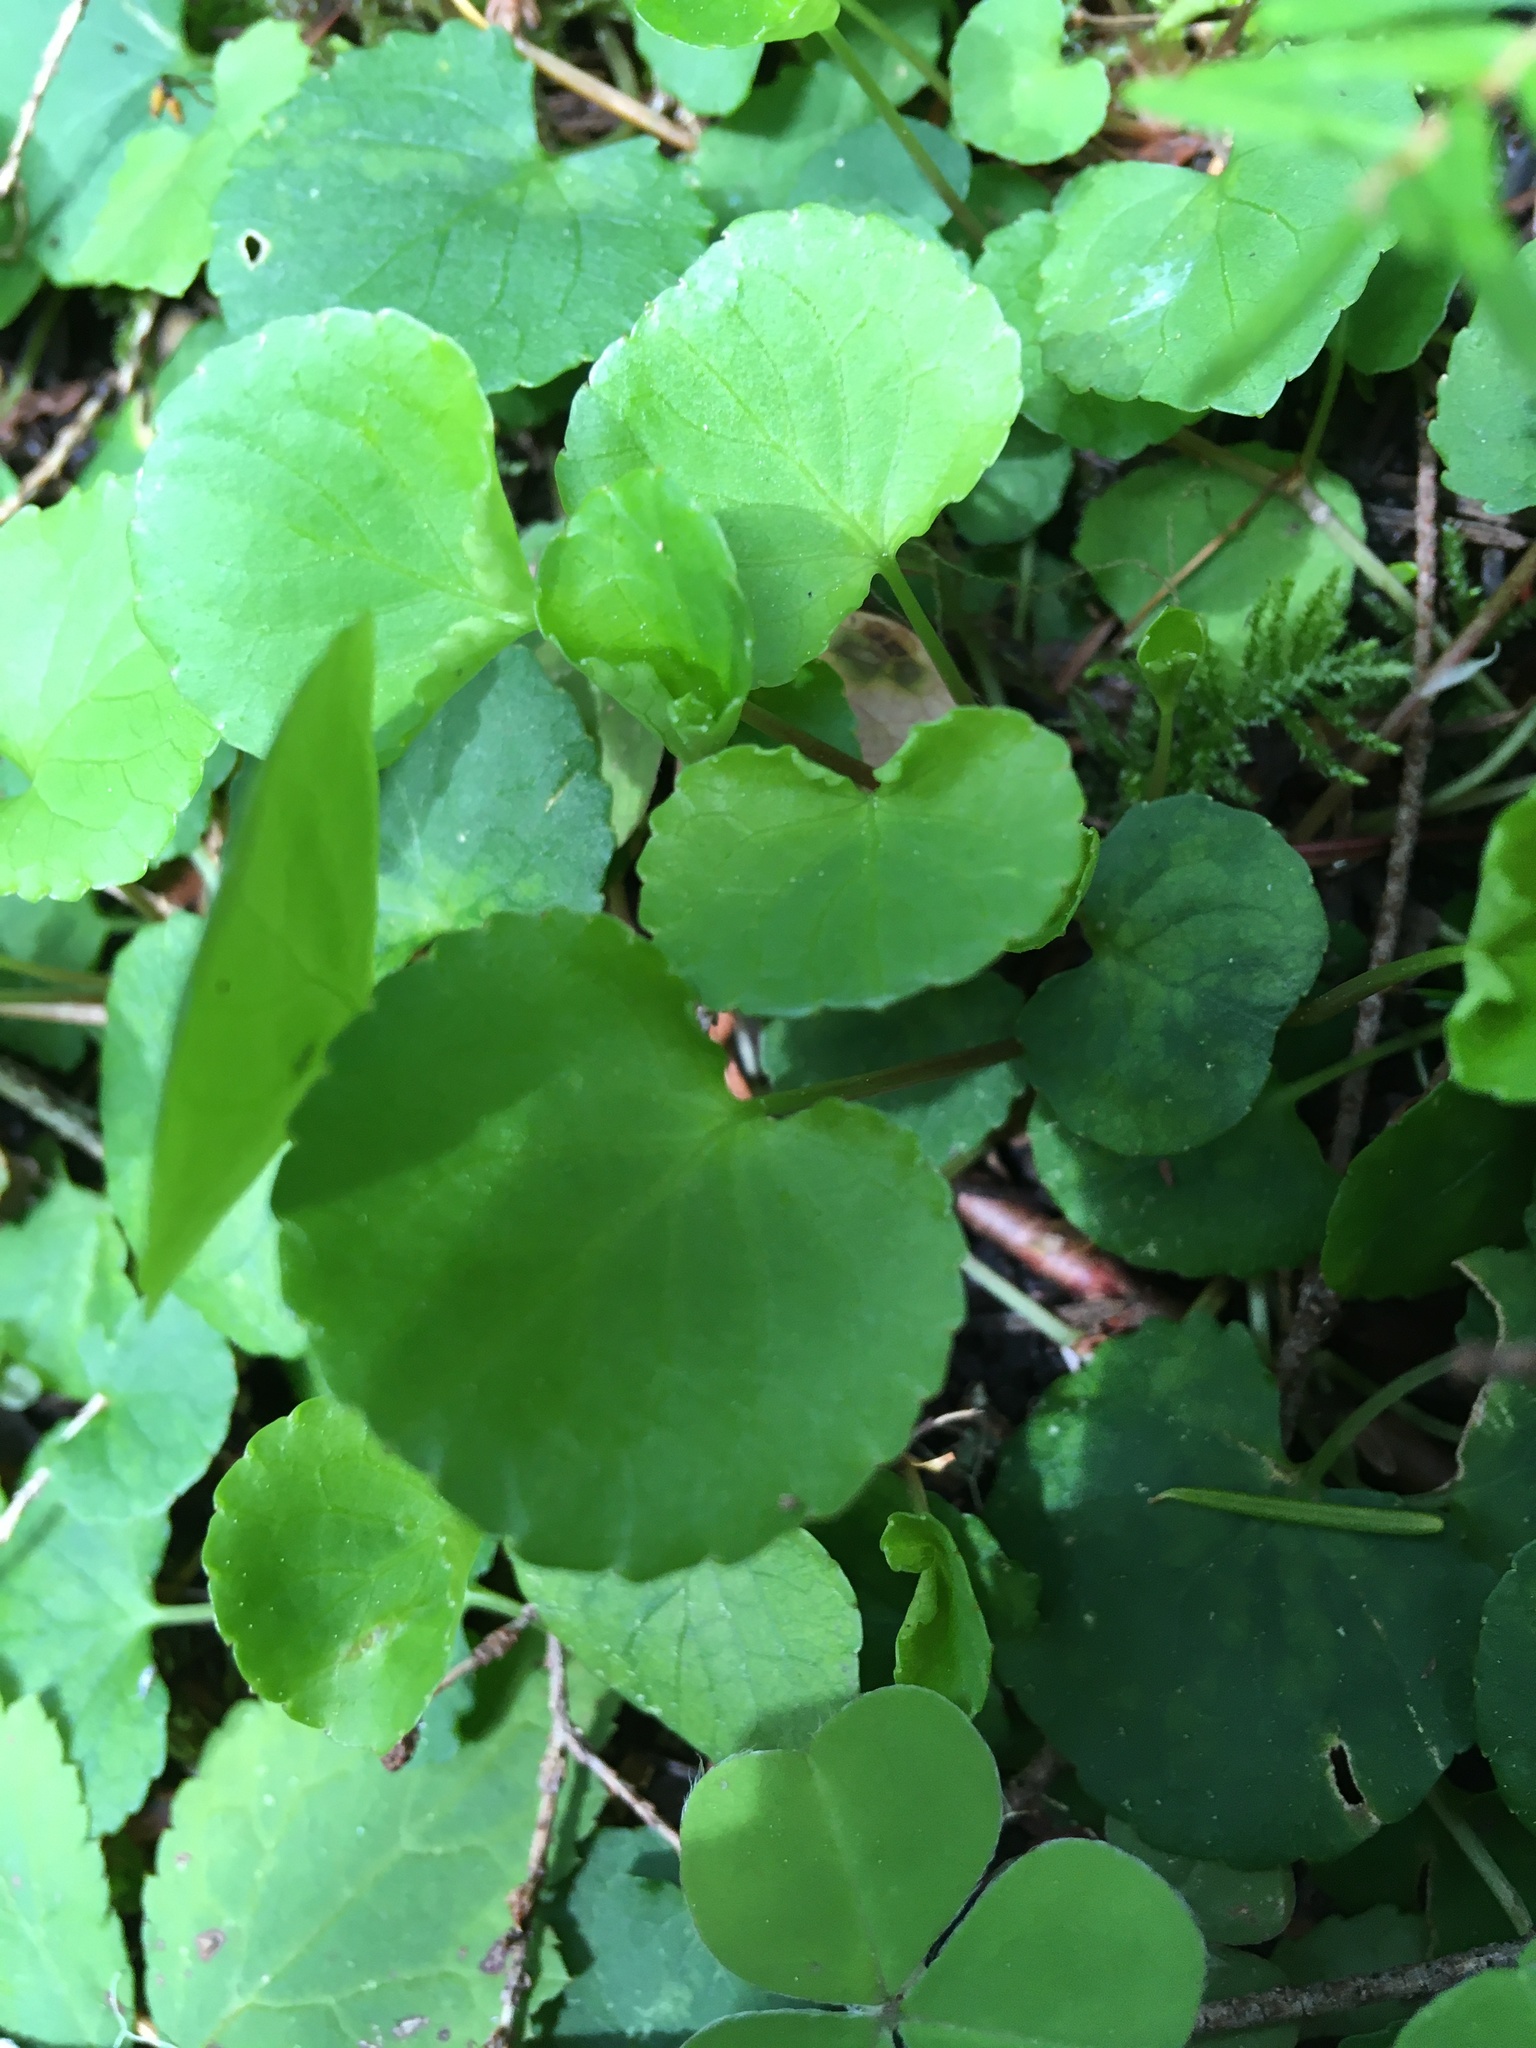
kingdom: Plantae
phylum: Tracheophyta
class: Magnoliopsida
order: Malpighiales
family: Violaceae
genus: Viola
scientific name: Viola sempervirens
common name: Evergreen violet
